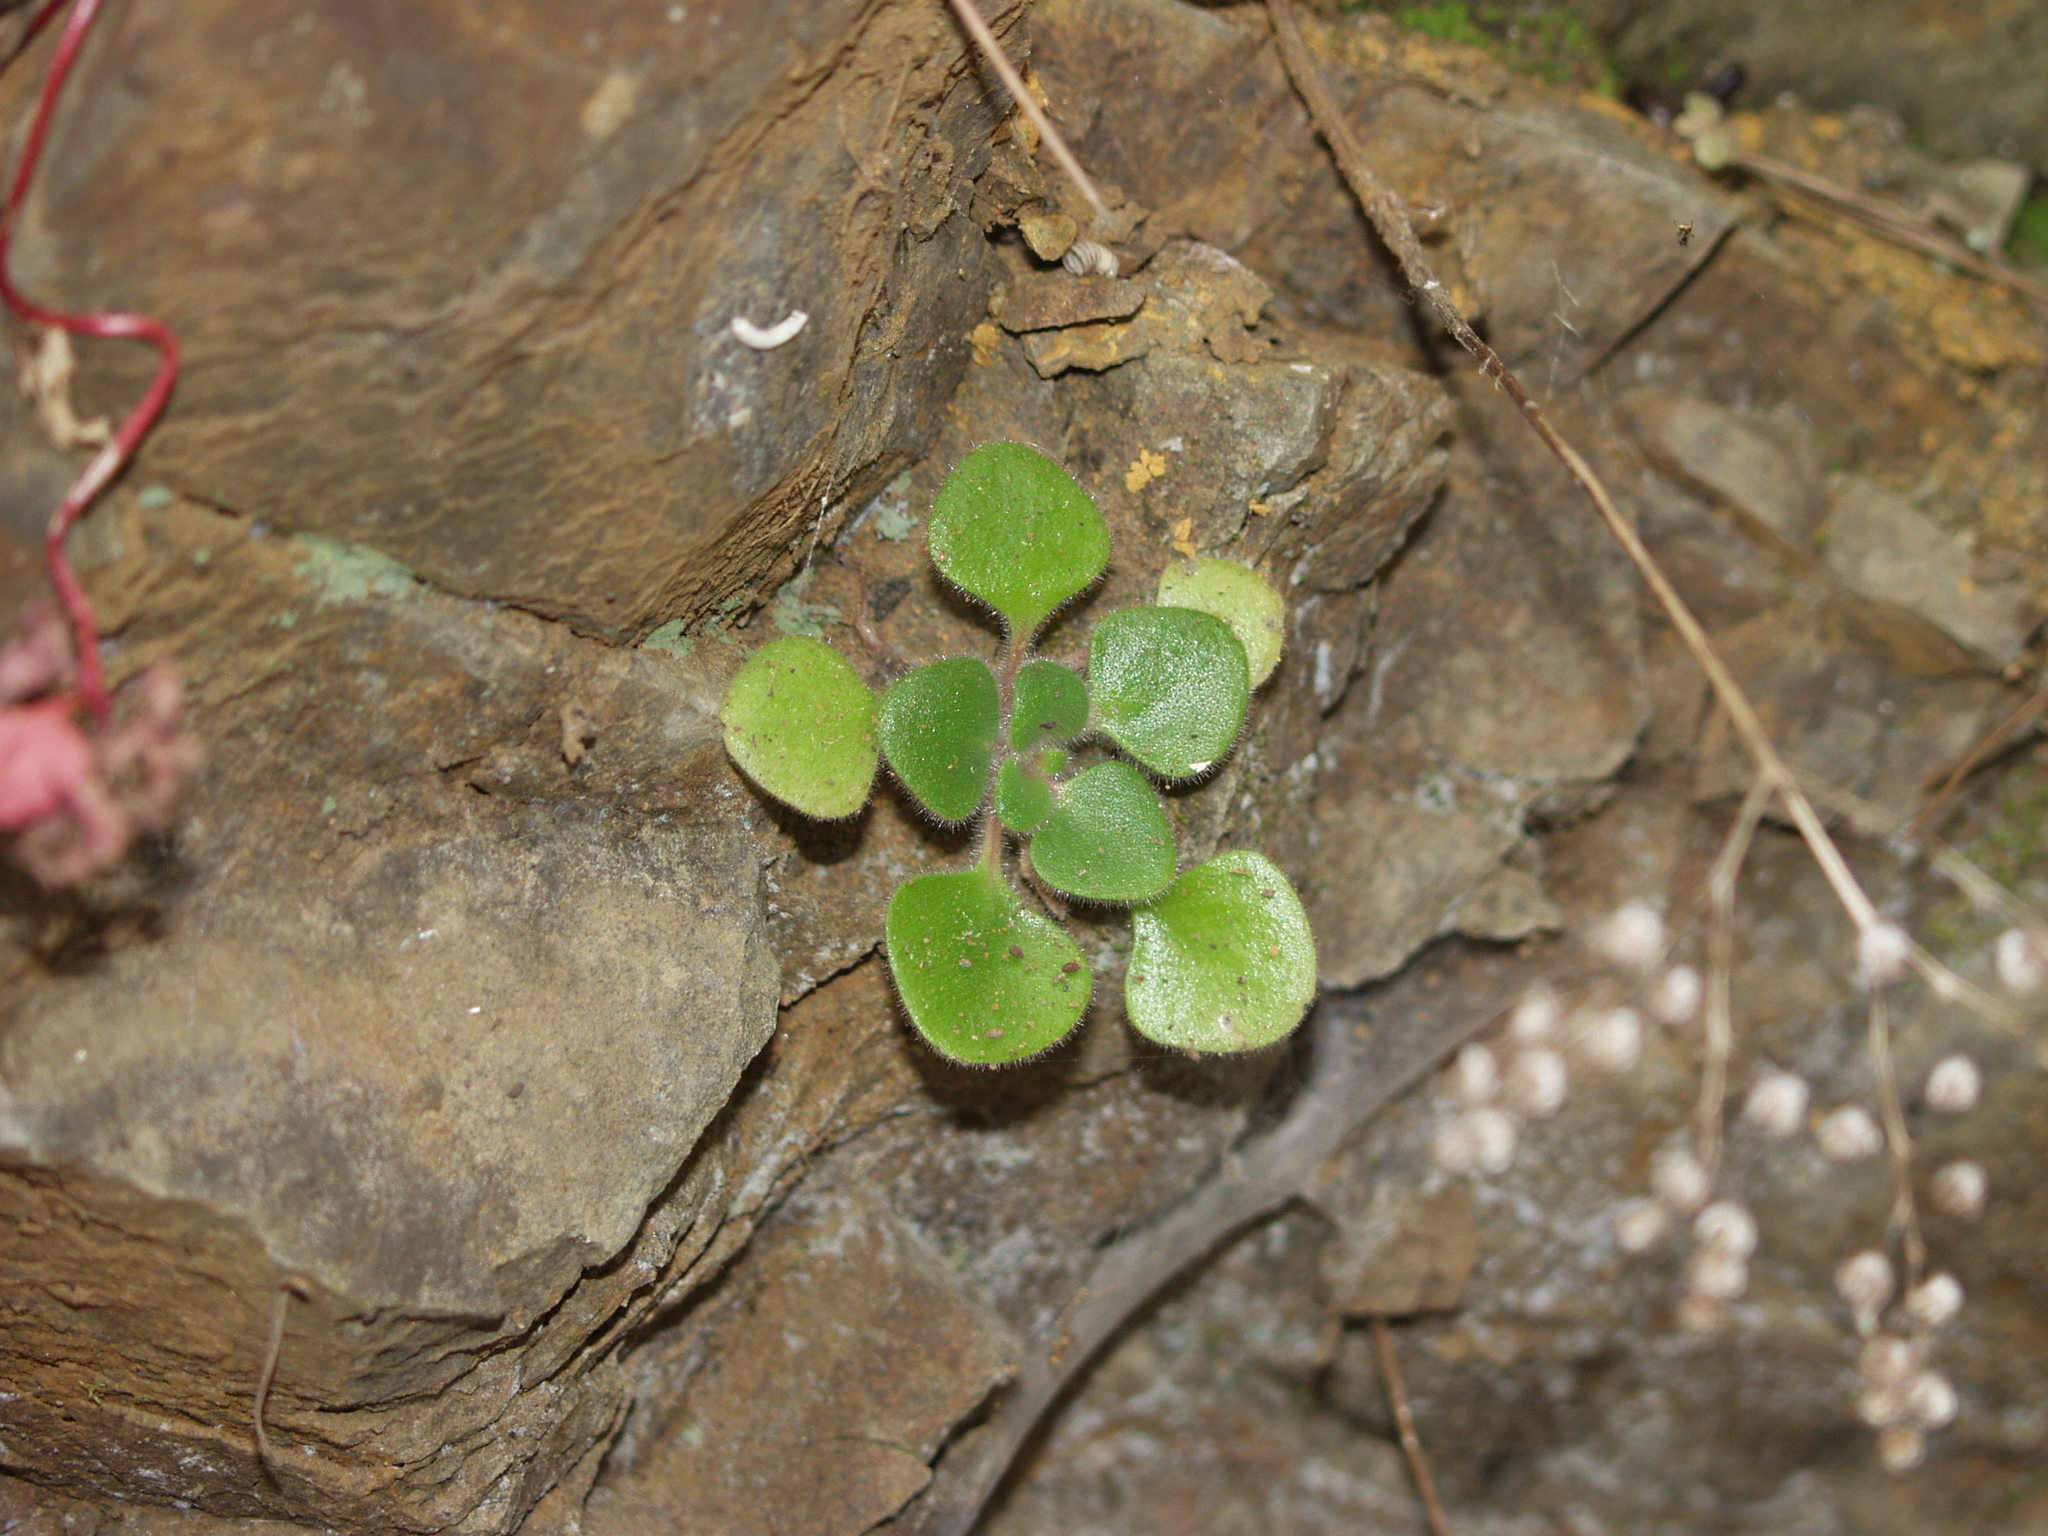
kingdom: Plantae
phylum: Tracheophyta
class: Magnoliopsida
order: Saxifragales
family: Crassulaceae
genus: Aichryson
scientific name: Aichryson laxum
